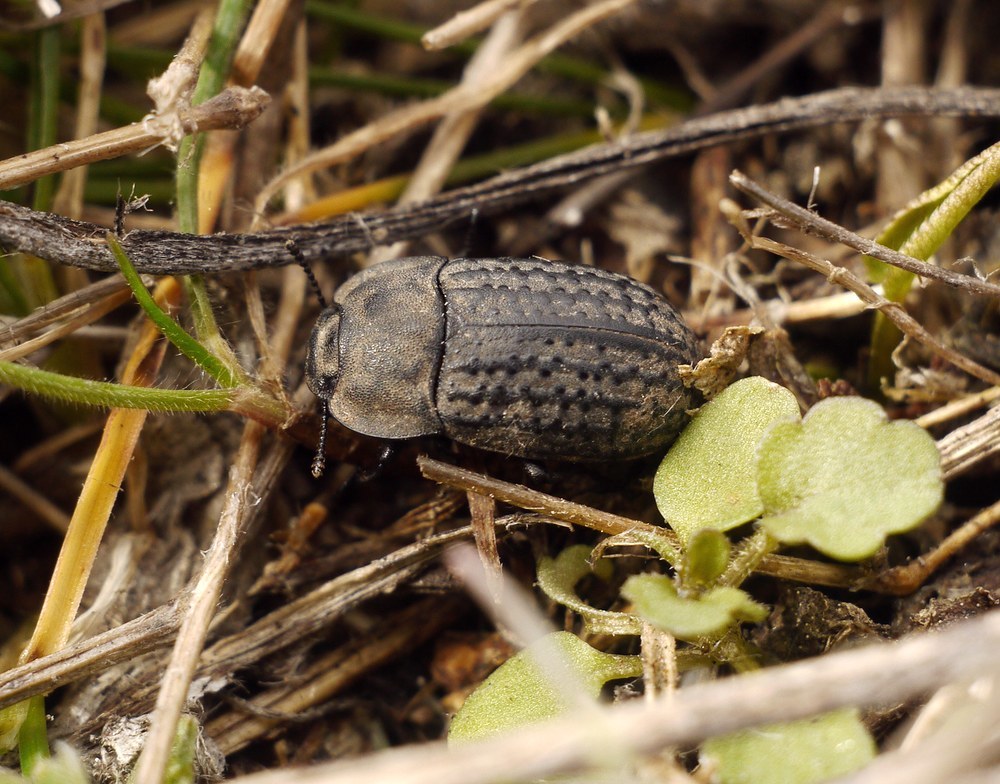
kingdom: Animalia
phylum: Arthropoda
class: Insecta
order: Coleoptera
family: Tenebrionidae
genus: Opatrum
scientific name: Opatrum sabulosum
